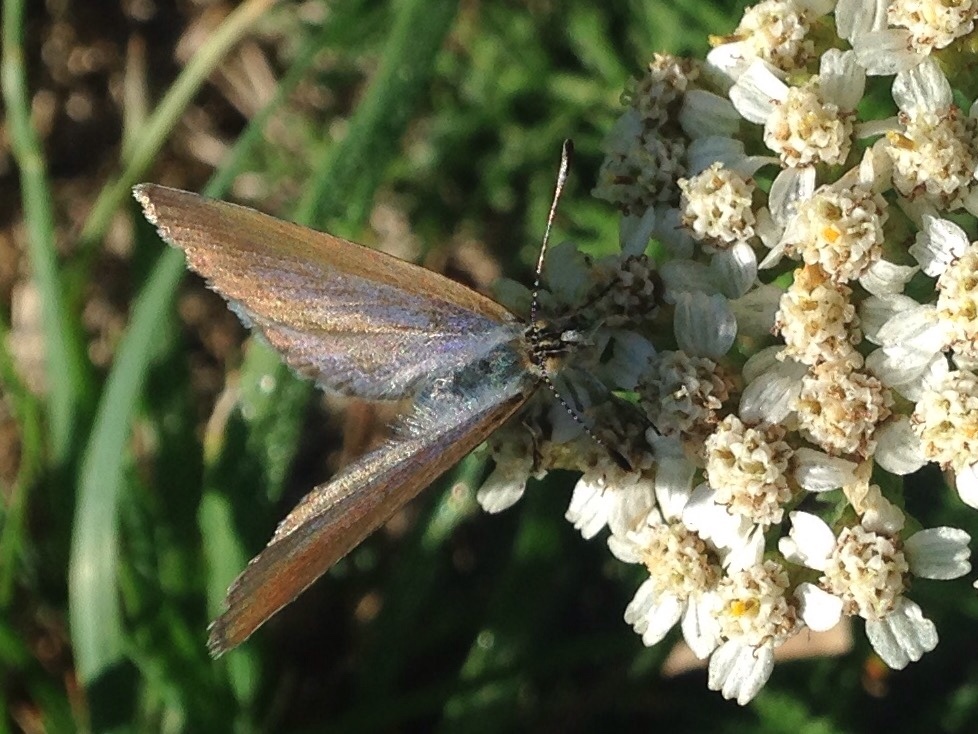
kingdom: Animalia
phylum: Arthropoda
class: Insecta
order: Lepidoptera
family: Lycaenidae
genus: Zizina
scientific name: Zizina labradus
